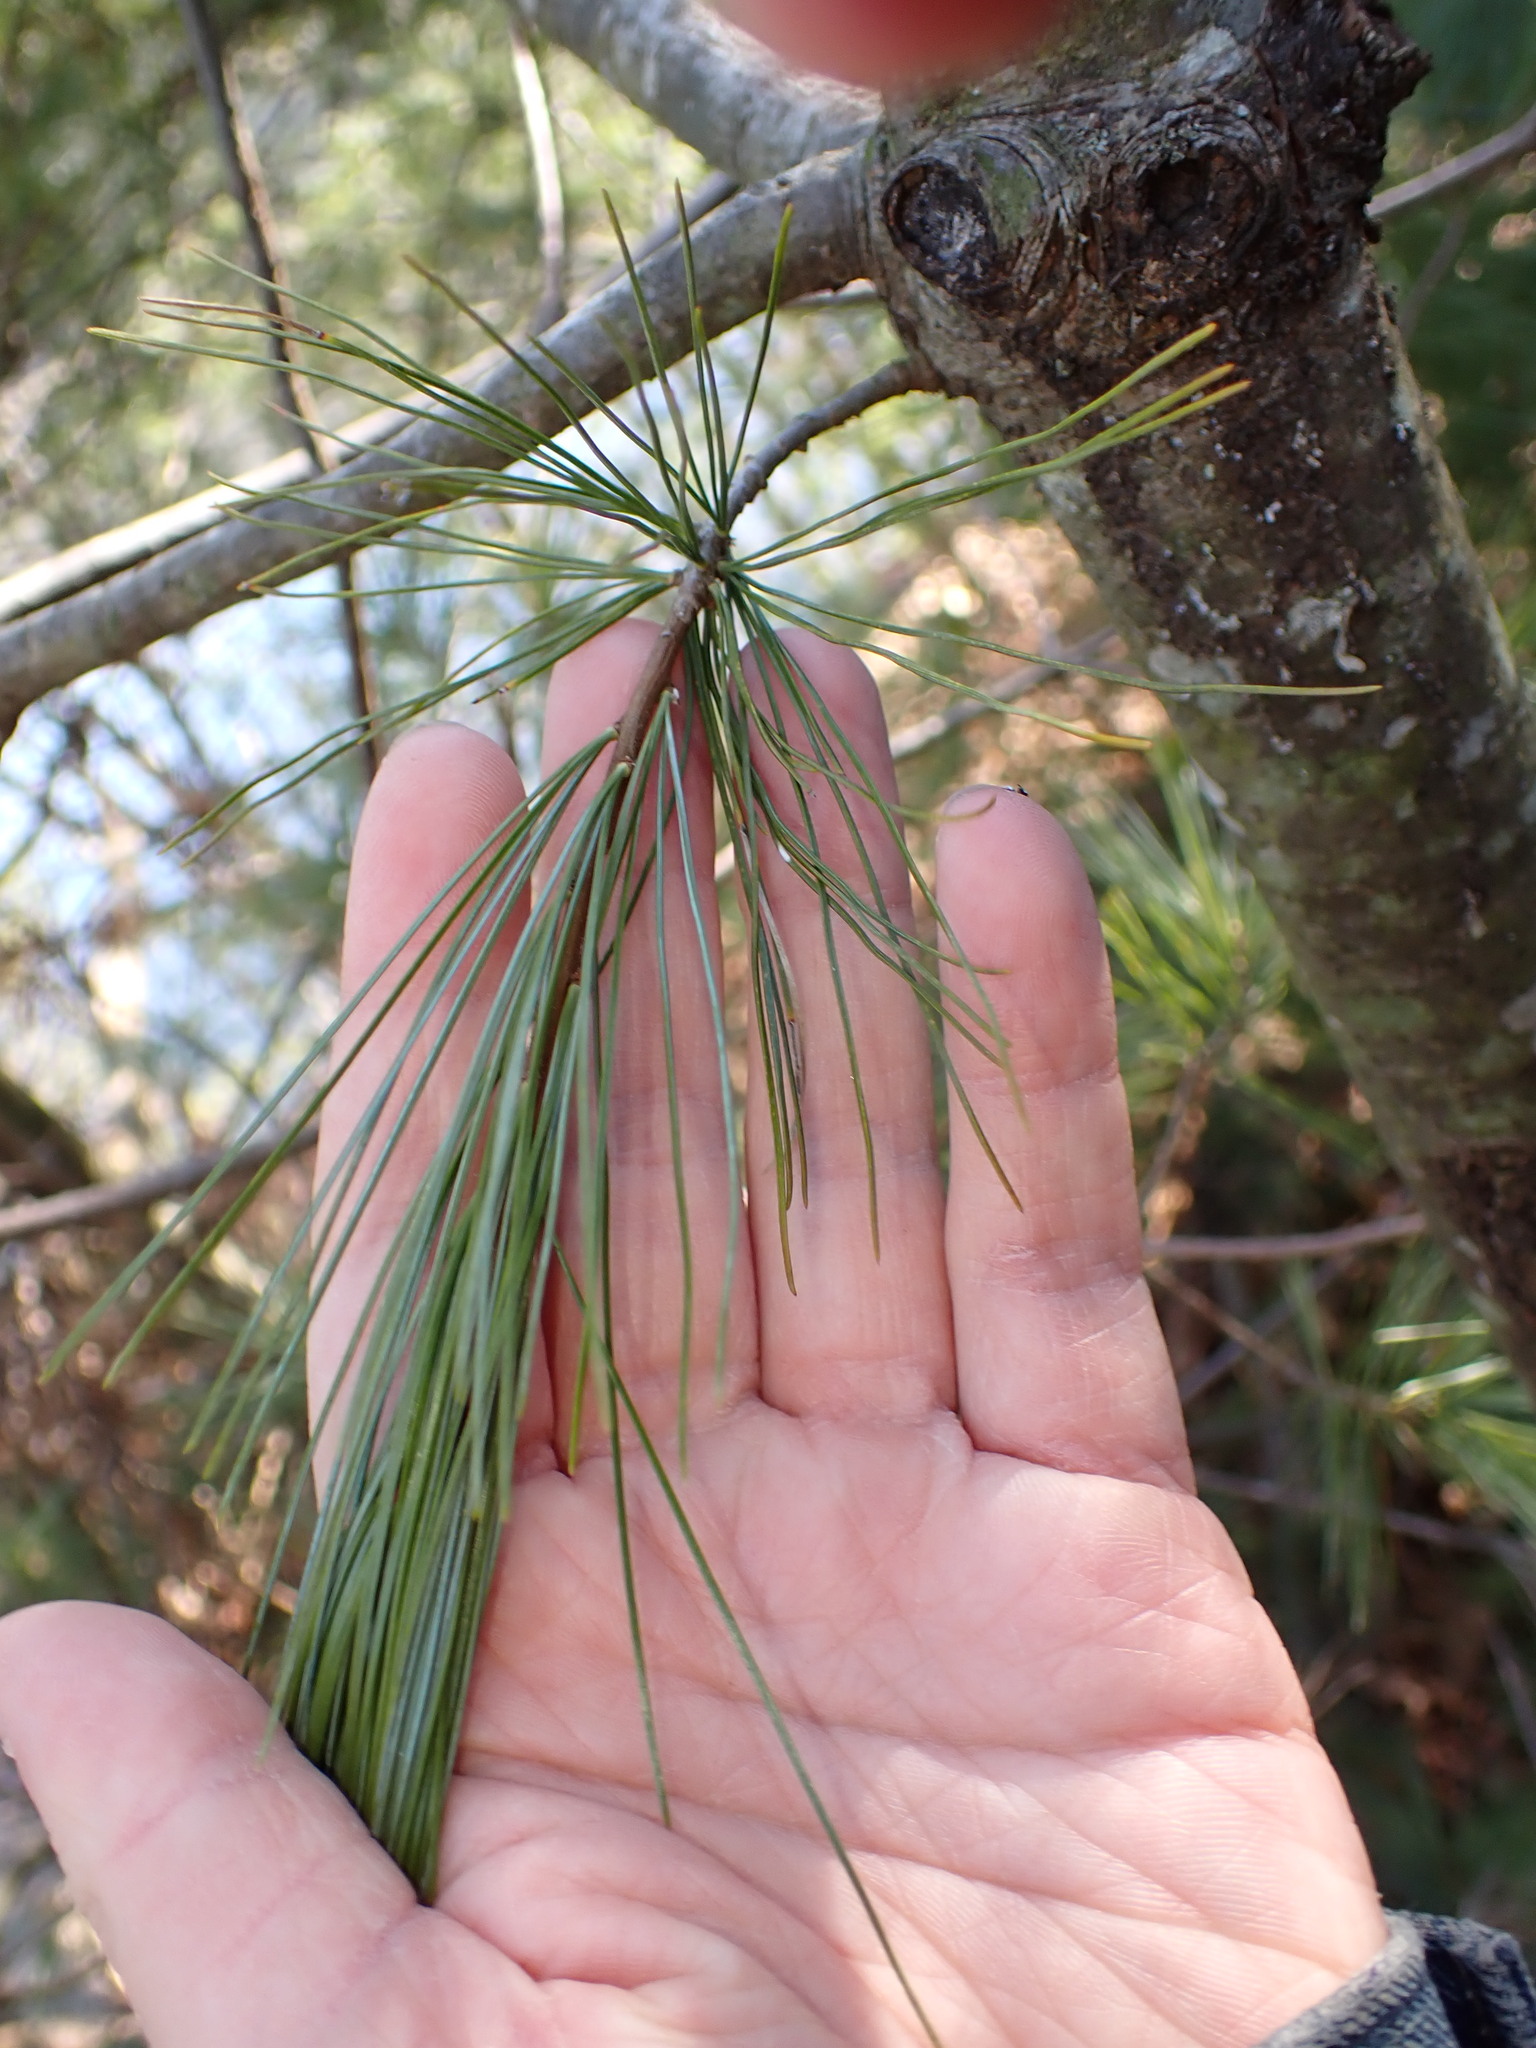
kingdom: Plantae
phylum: Tracheophyta
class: Pinopsida
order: Pinales
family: Pinaceae
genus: Pinus
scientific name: Pinus strobus
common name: Weymouth pine
